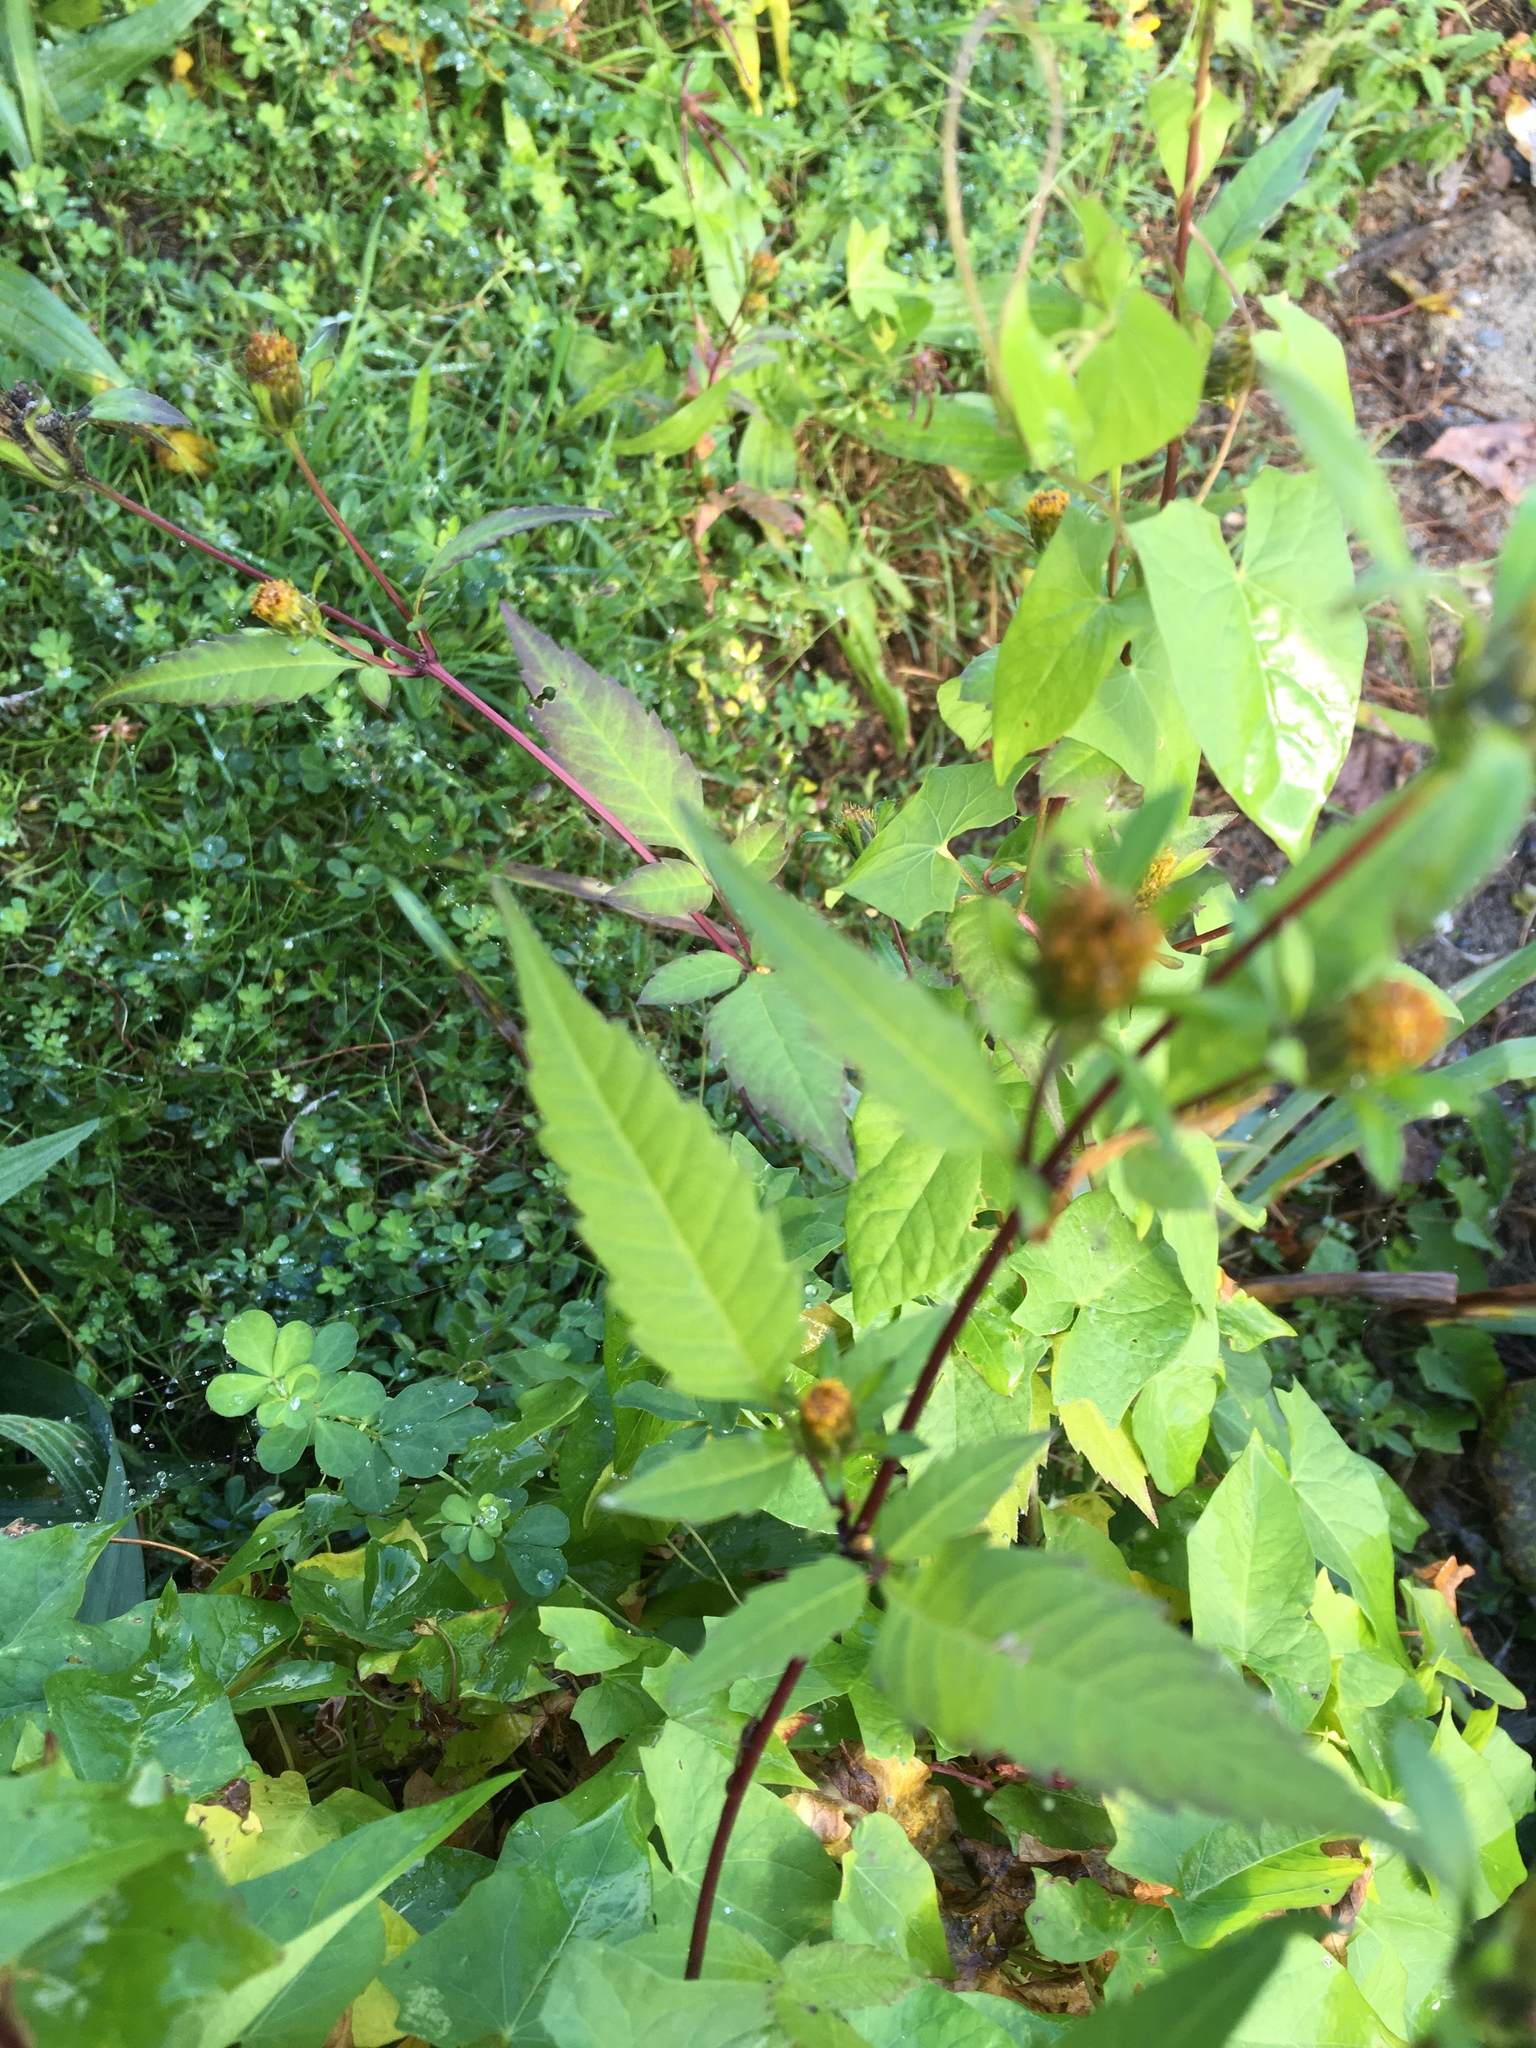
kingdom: Plantae
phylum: Tracheophyta
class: Magnoliopsida
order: Asterales
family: Asteraceae
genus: Bidens
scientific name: Bidens frondosa
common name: Beggarticks
